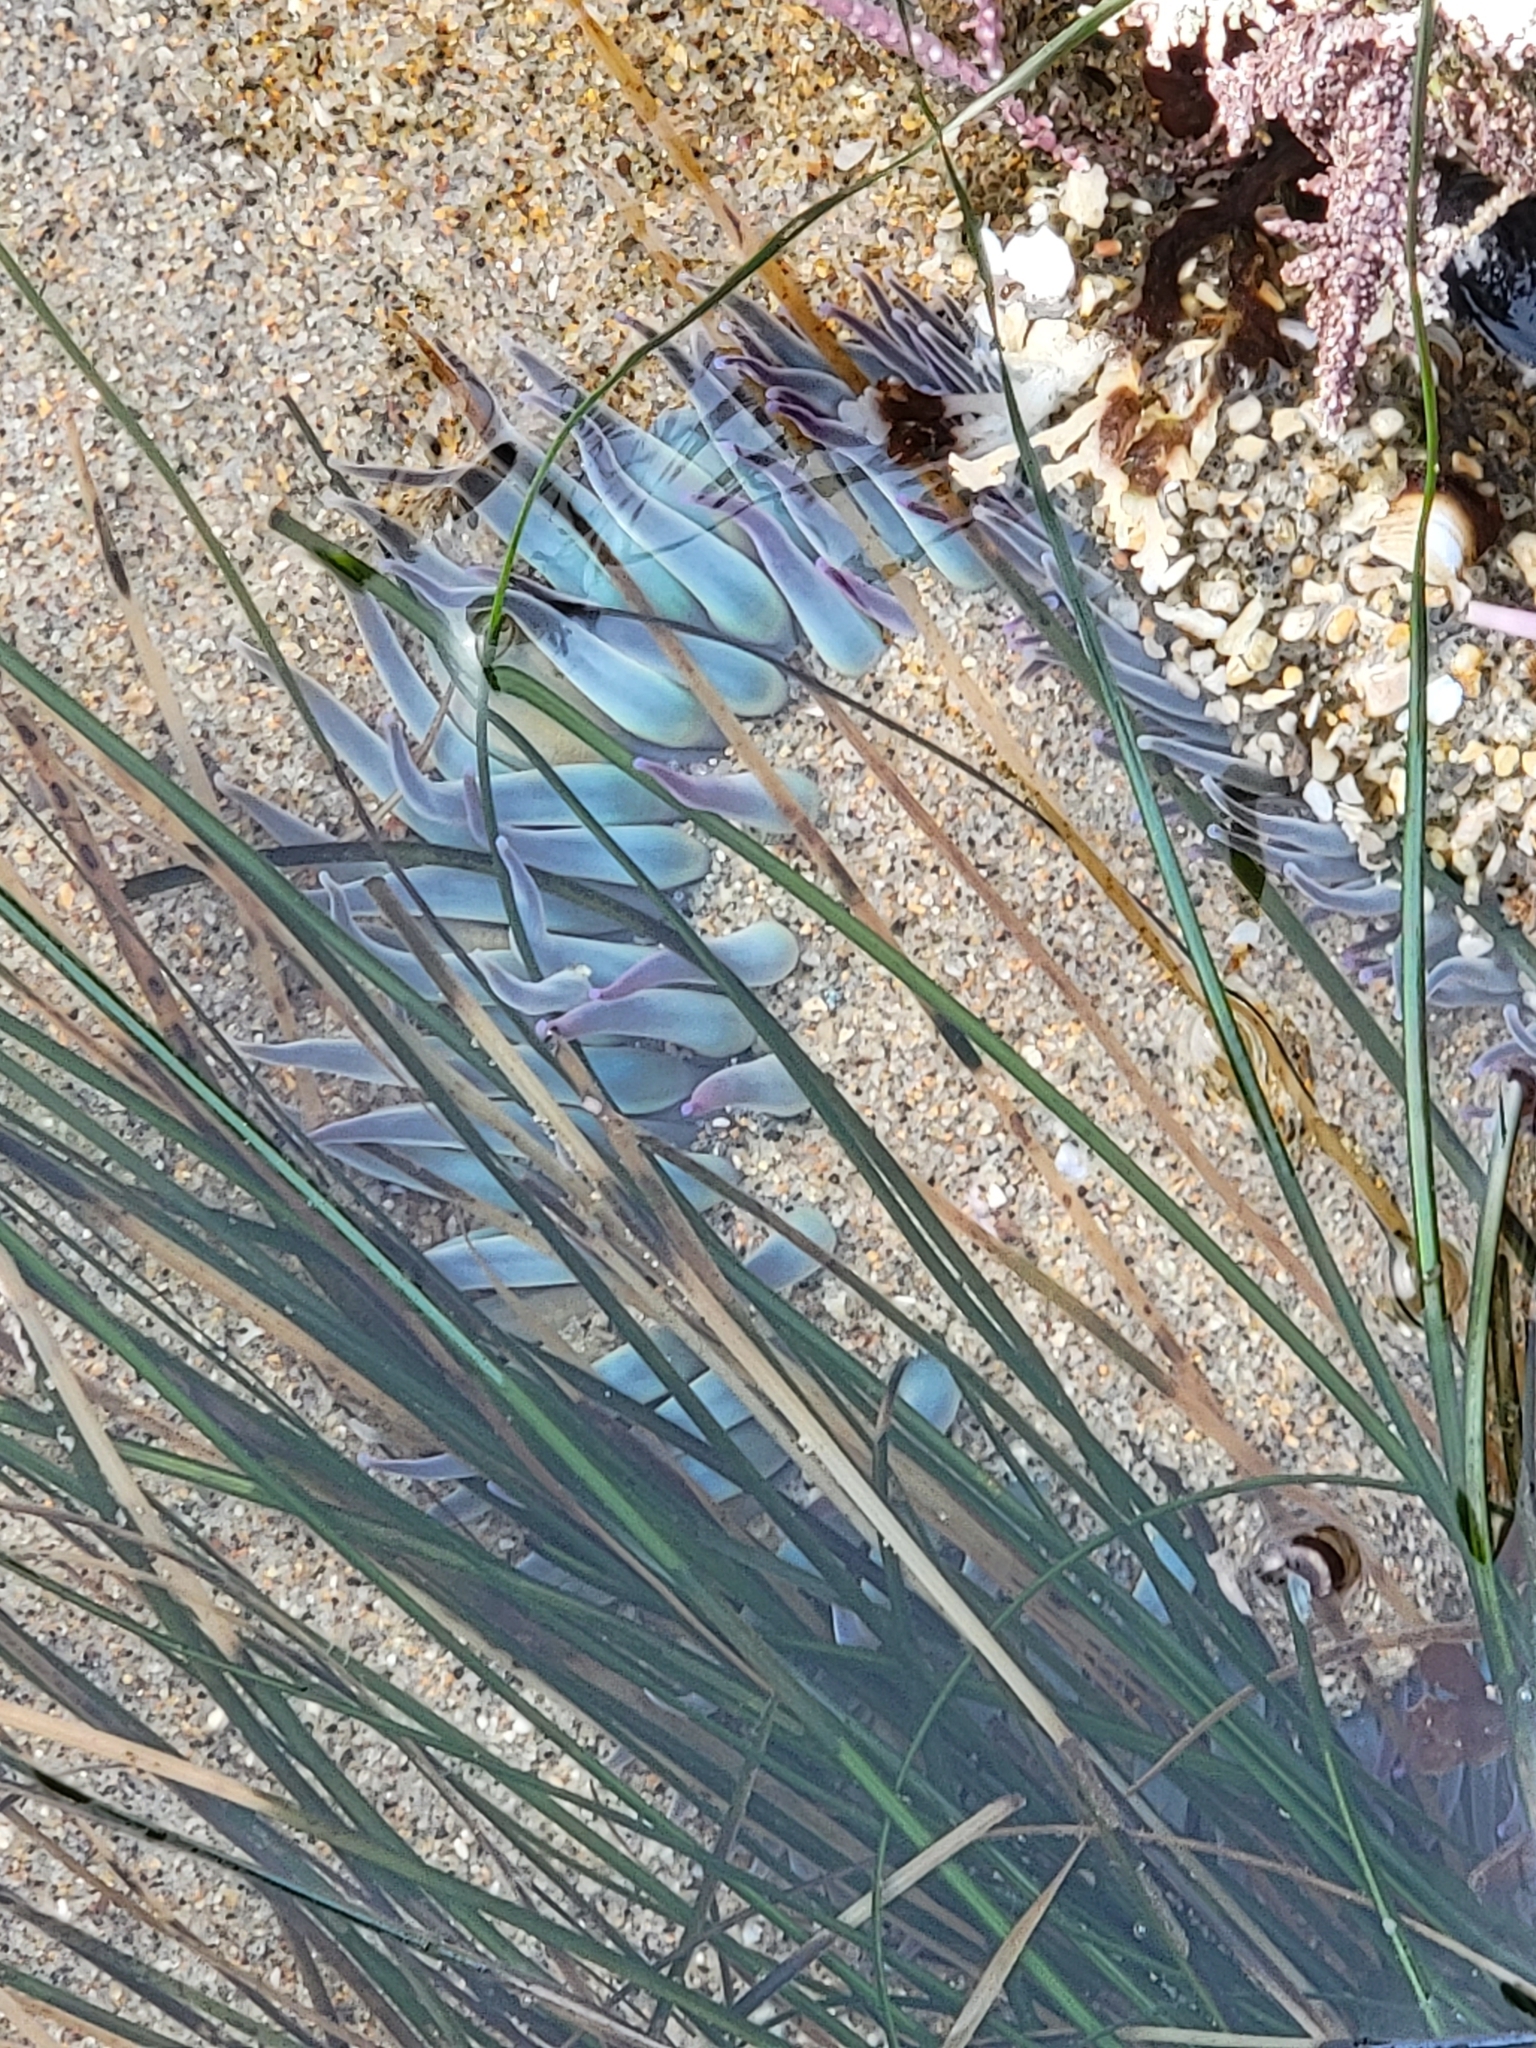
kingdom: Animalia
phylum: Cnidaria
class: Anthozoa
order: Actiniaria
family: Actiniidae
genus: Anthopleura
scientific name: Anthopleura sola
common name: Sun anemone
